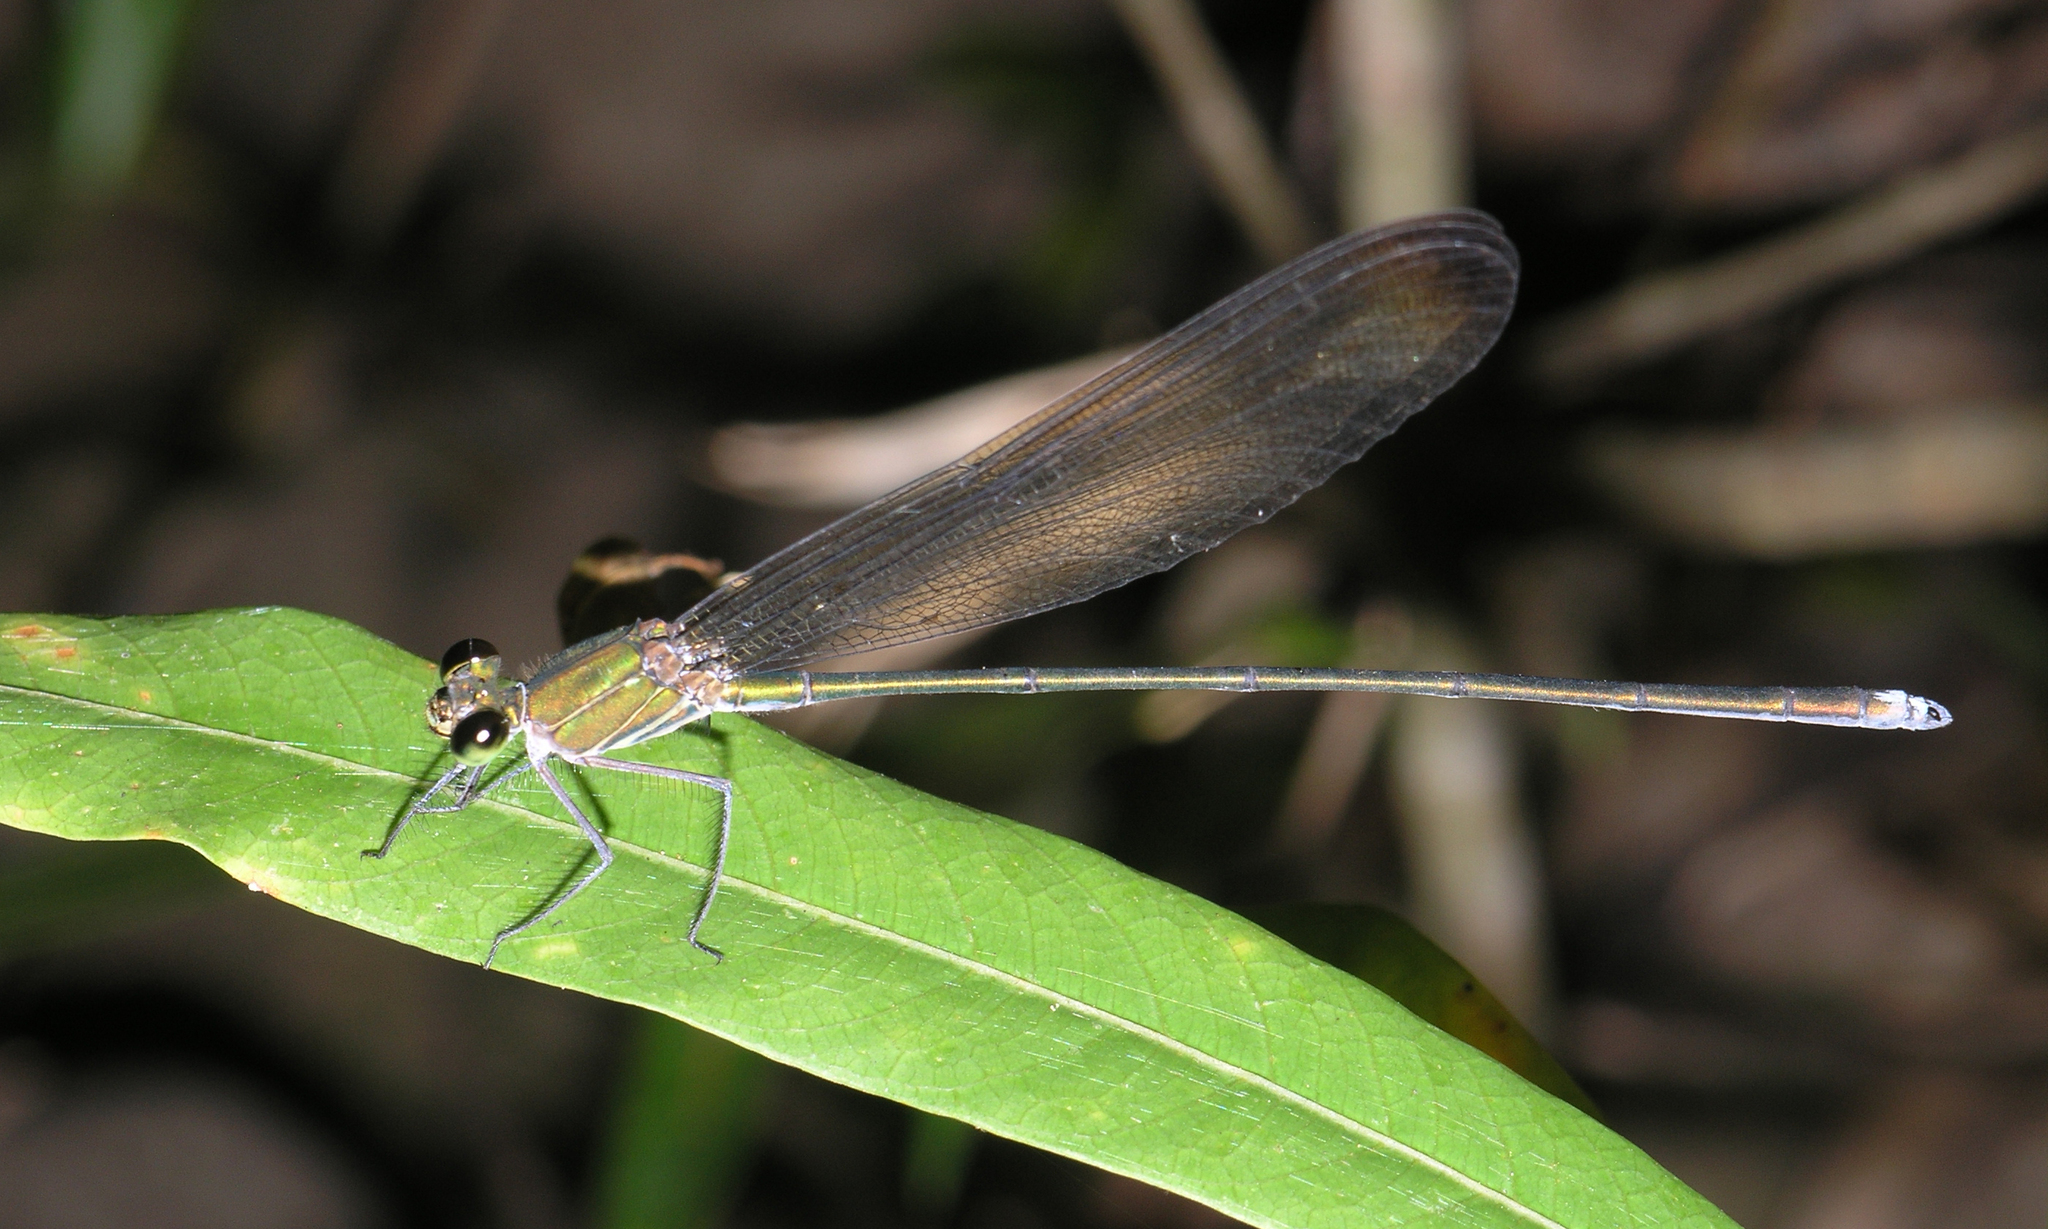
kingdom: Animalia
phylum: Arthropoda
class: Insecta
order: Odonata
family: Calopterygidae
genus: Vestalis
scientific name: Vestalis gracilis
